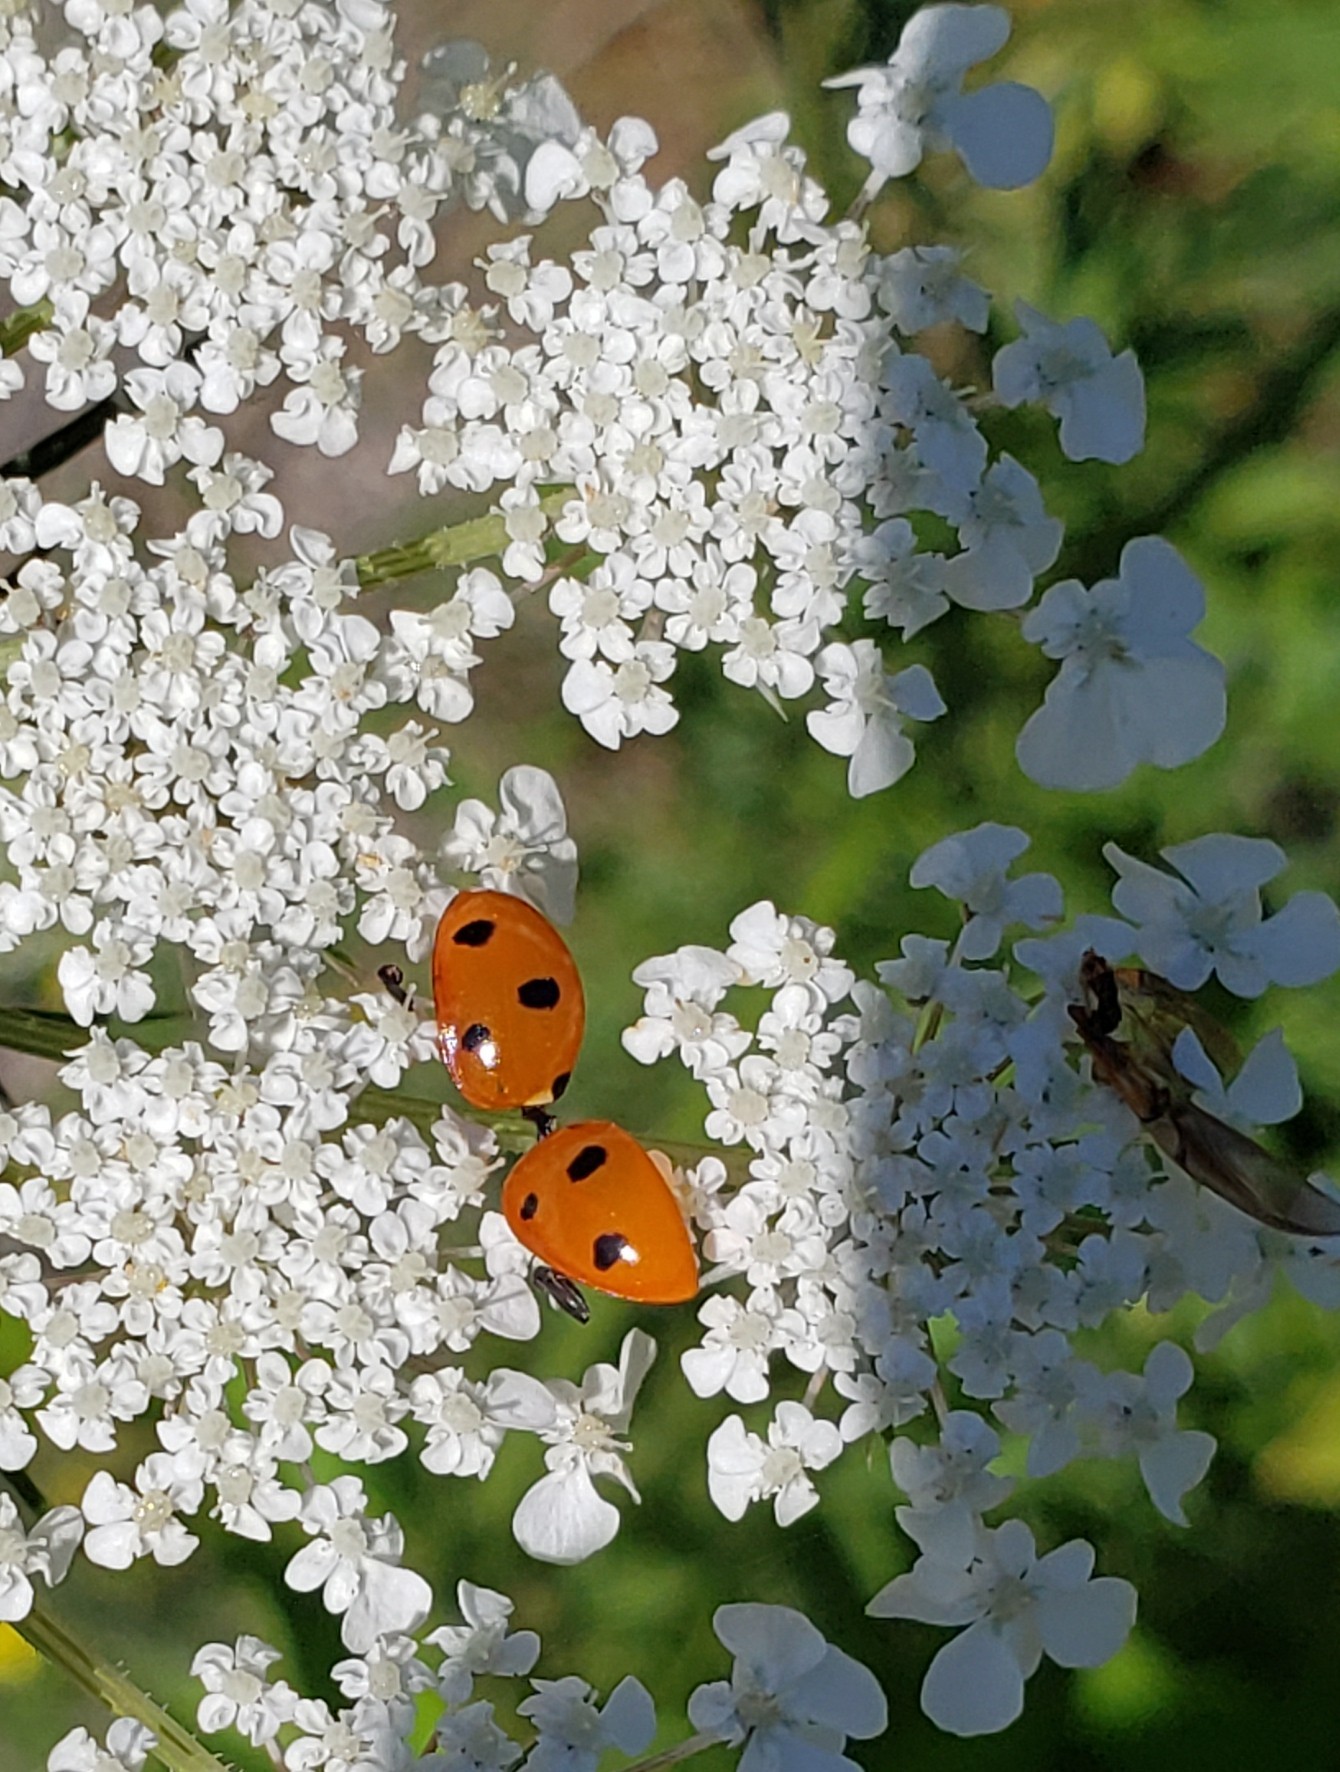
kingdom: Animalia
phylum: Arthropoda
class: Insecta
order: Coleoptera
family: Coccinellidae
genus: Coccinella
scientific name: Coccinella septempunctata
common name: Sevenspotted lady beetle
